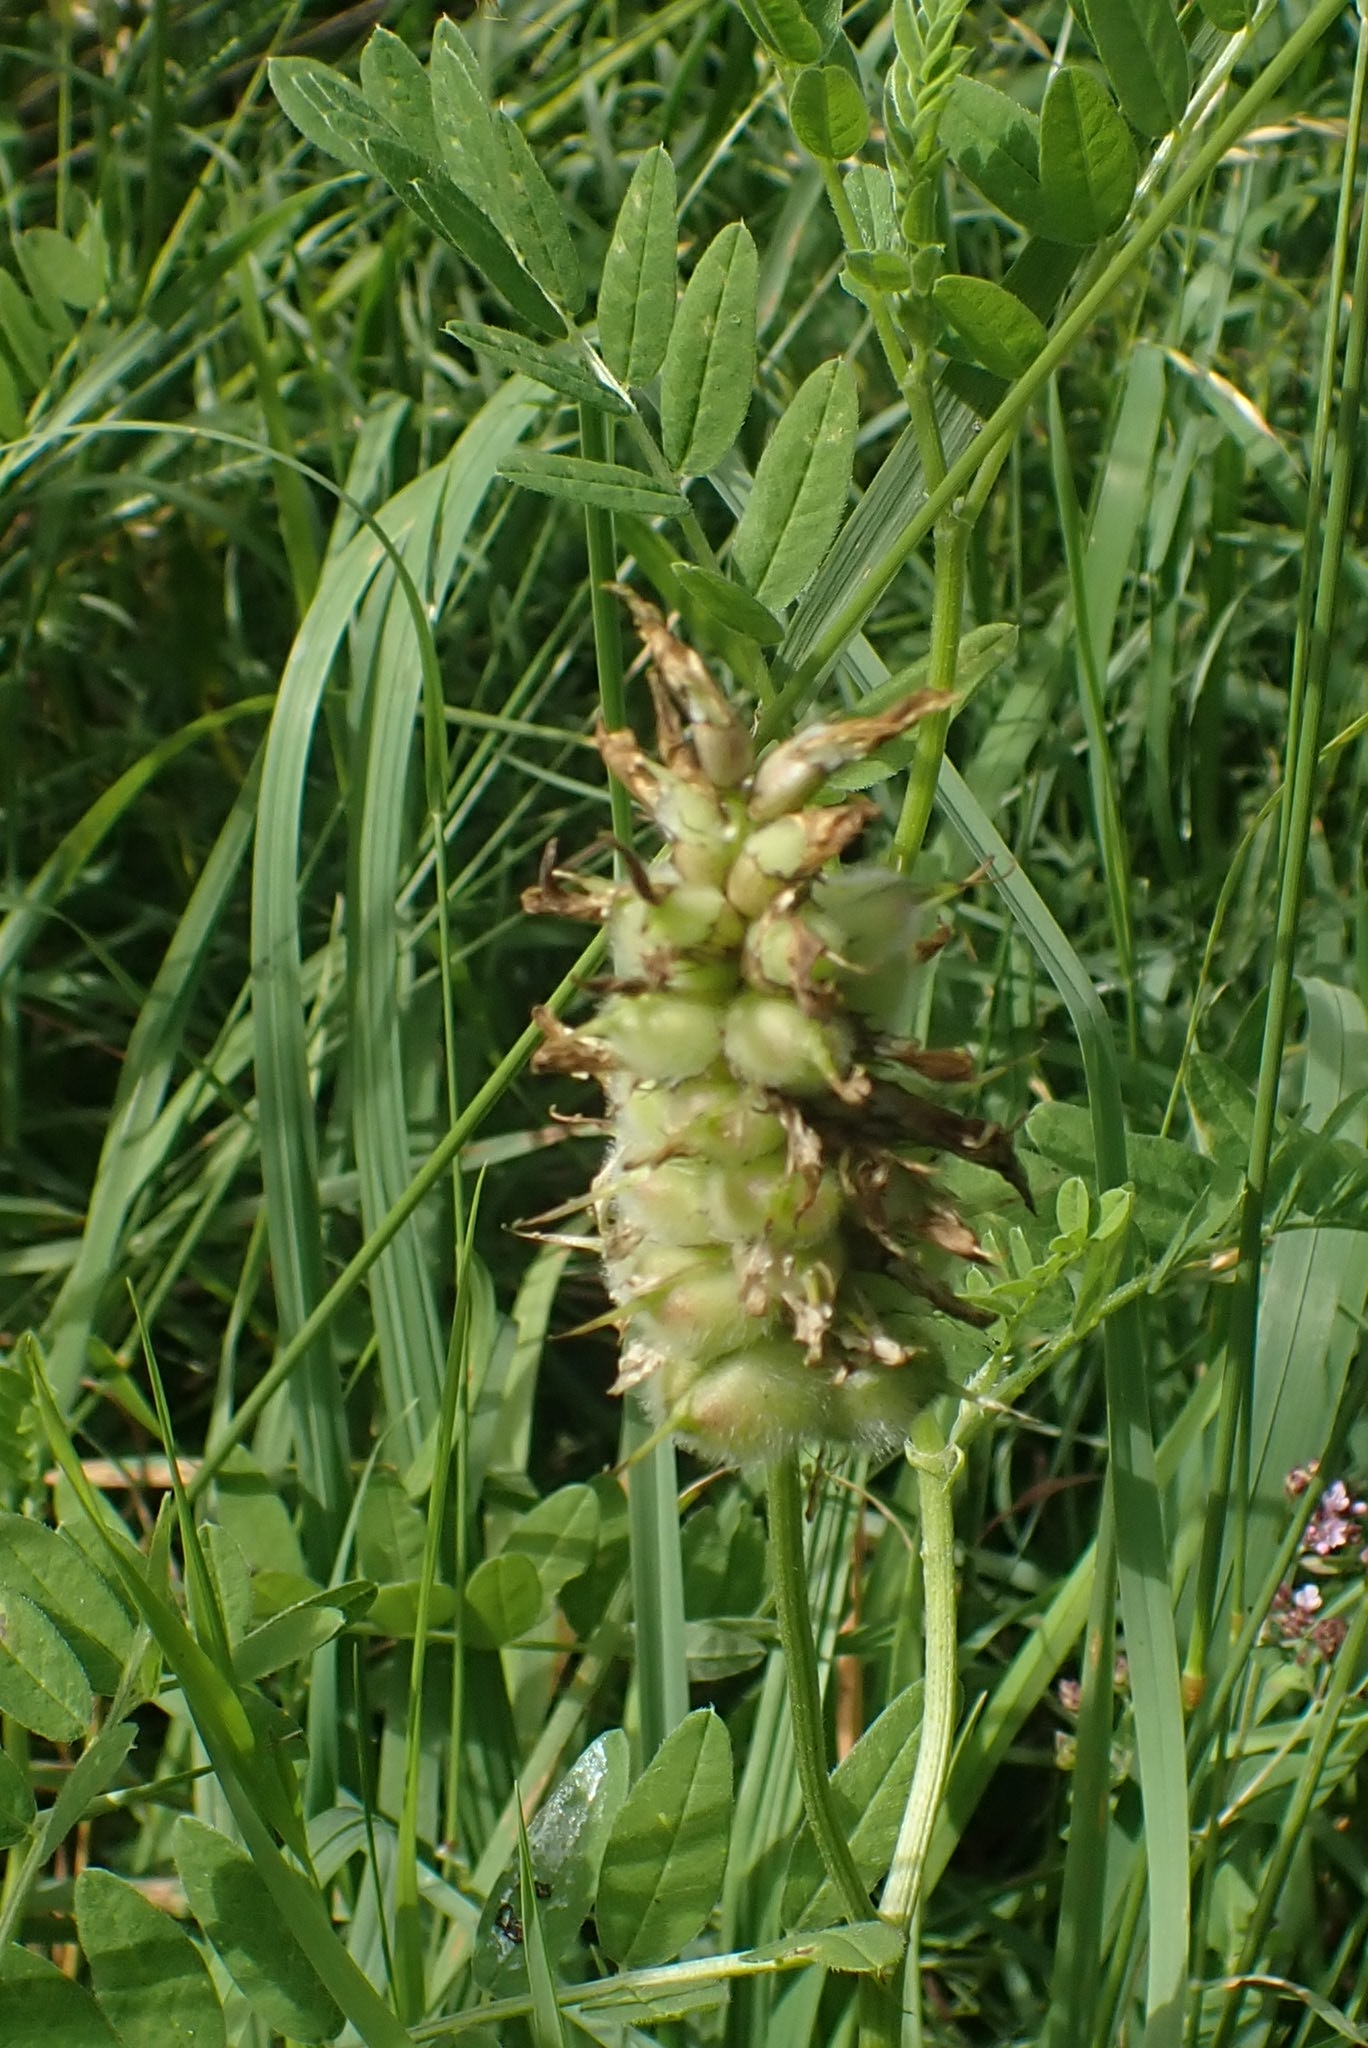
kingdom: Plantae
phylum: Tracheophyta
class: Magnoliopsida
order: Fabales
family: Fabaceae
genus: Astragalus
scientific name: Astragalus cicer
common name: Chick-pea milk-vetch
